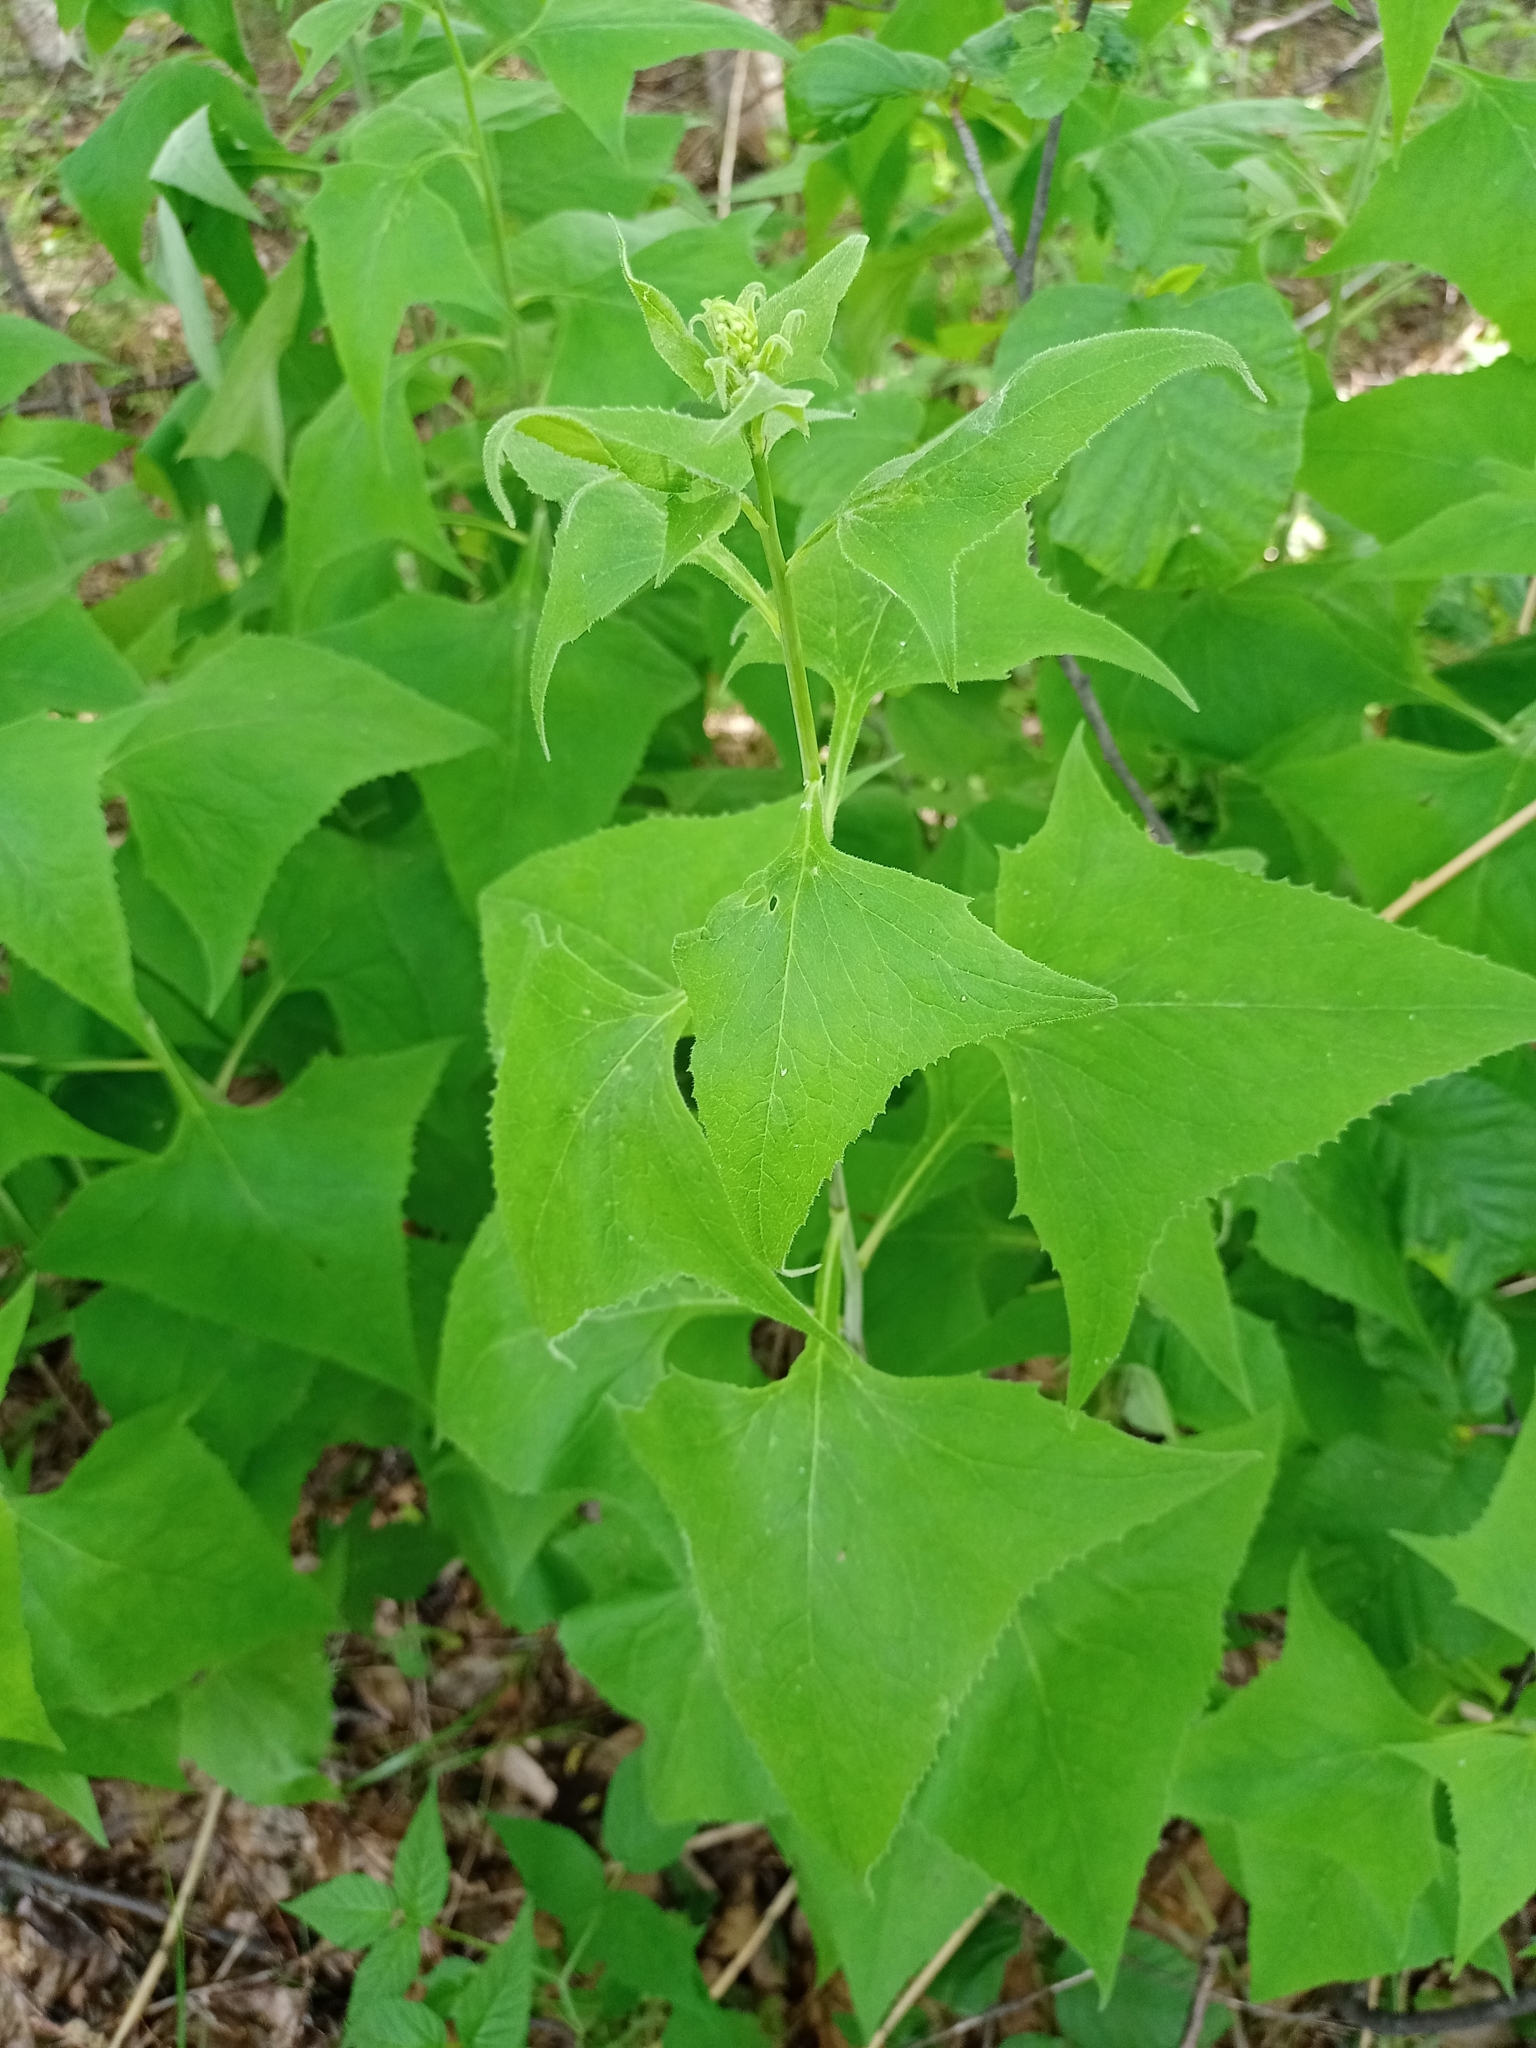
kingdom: Plantae
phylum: Tracheophyta
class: Magnoliopsida
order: Asterales
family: Asteraceae
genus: Parasenecio
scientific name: Parasenecio hastatus
